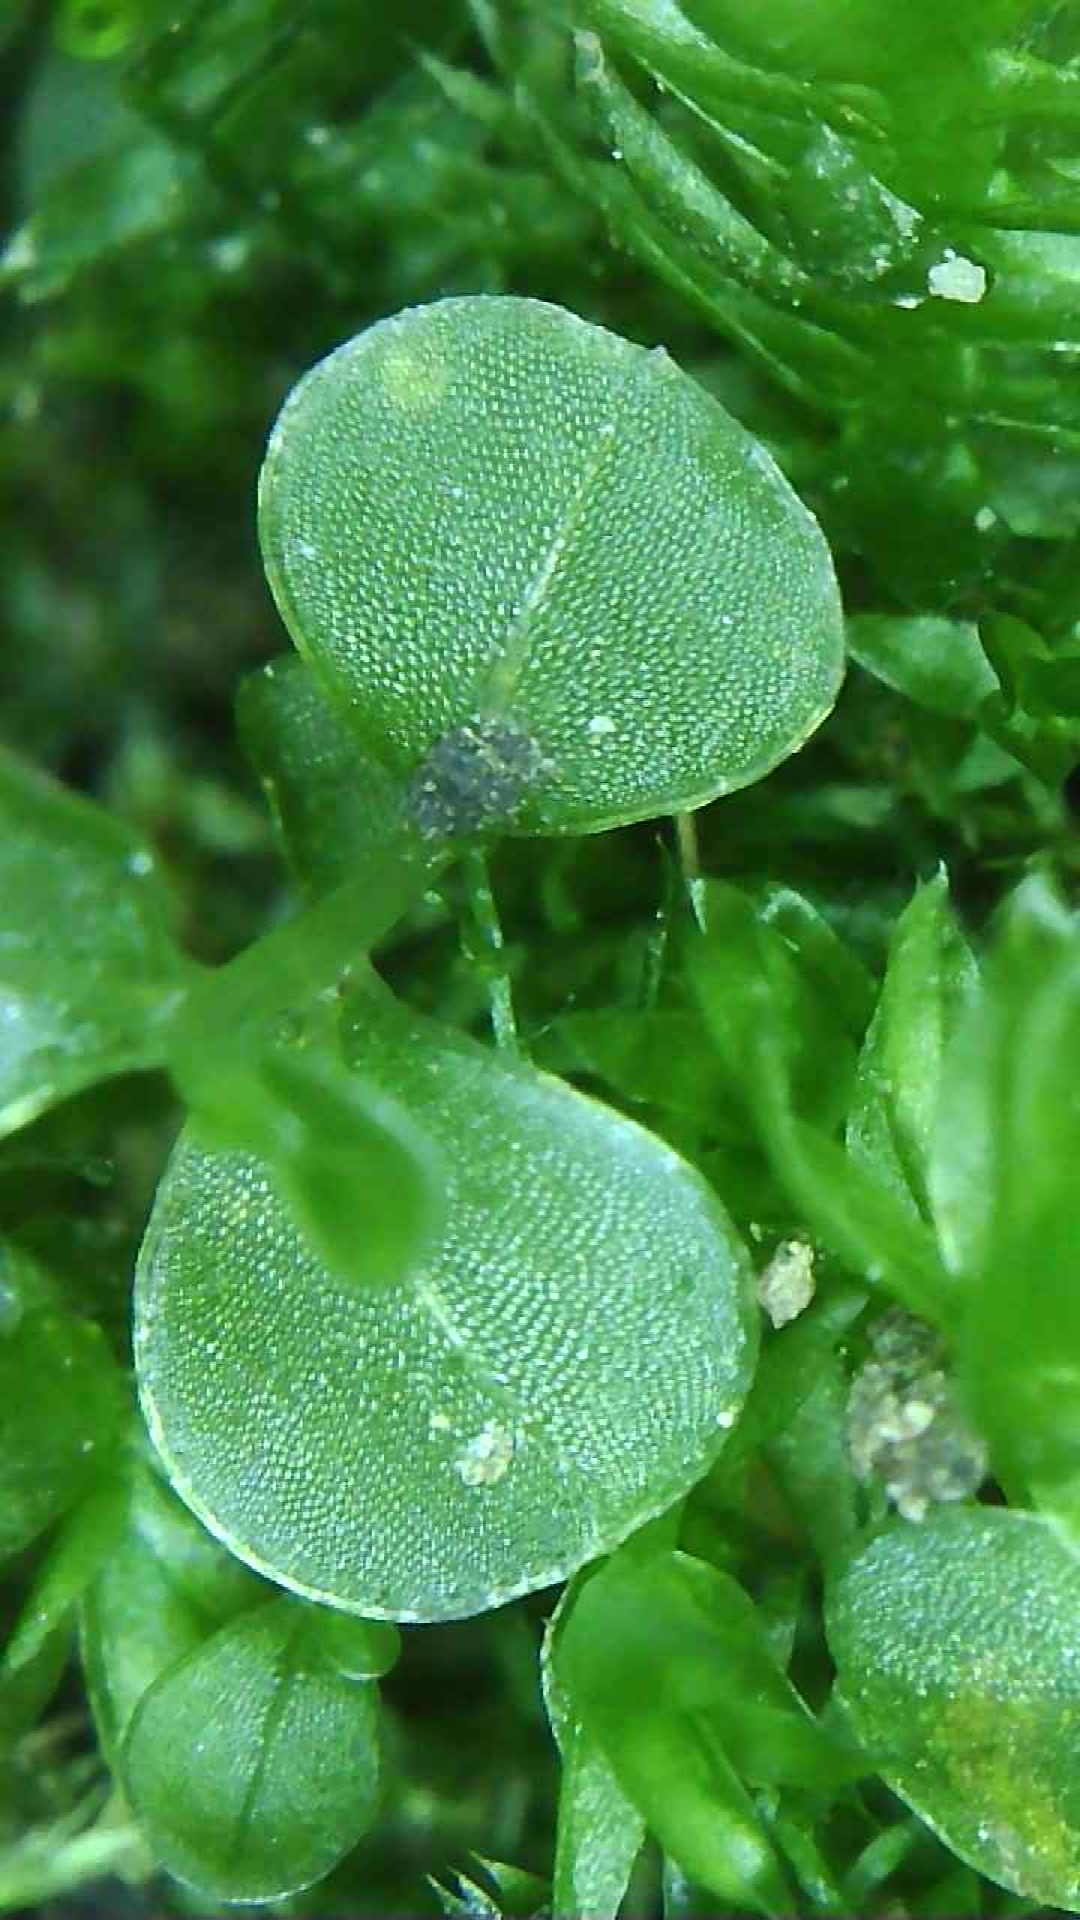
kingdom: Plantae
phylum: Bryophyta
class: Bryopsida
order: Bryales
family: Mniaceae
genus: Rhizomnium
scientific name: Rhizomnium punctatum
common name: Dotted leafy moss
